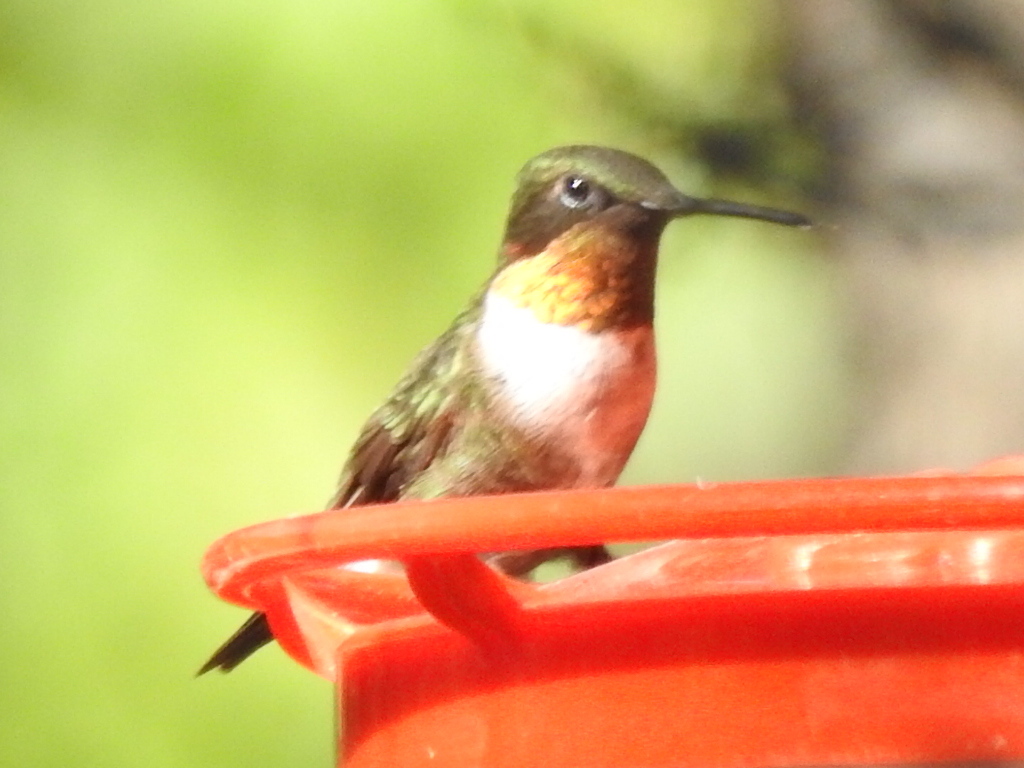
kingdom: Animalia
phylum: Chordata
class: Aves
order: Apodiformes
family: Trochilidae
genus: Archilochus
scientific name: Archilochus colubris
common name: Ruby-throated hummingbird
